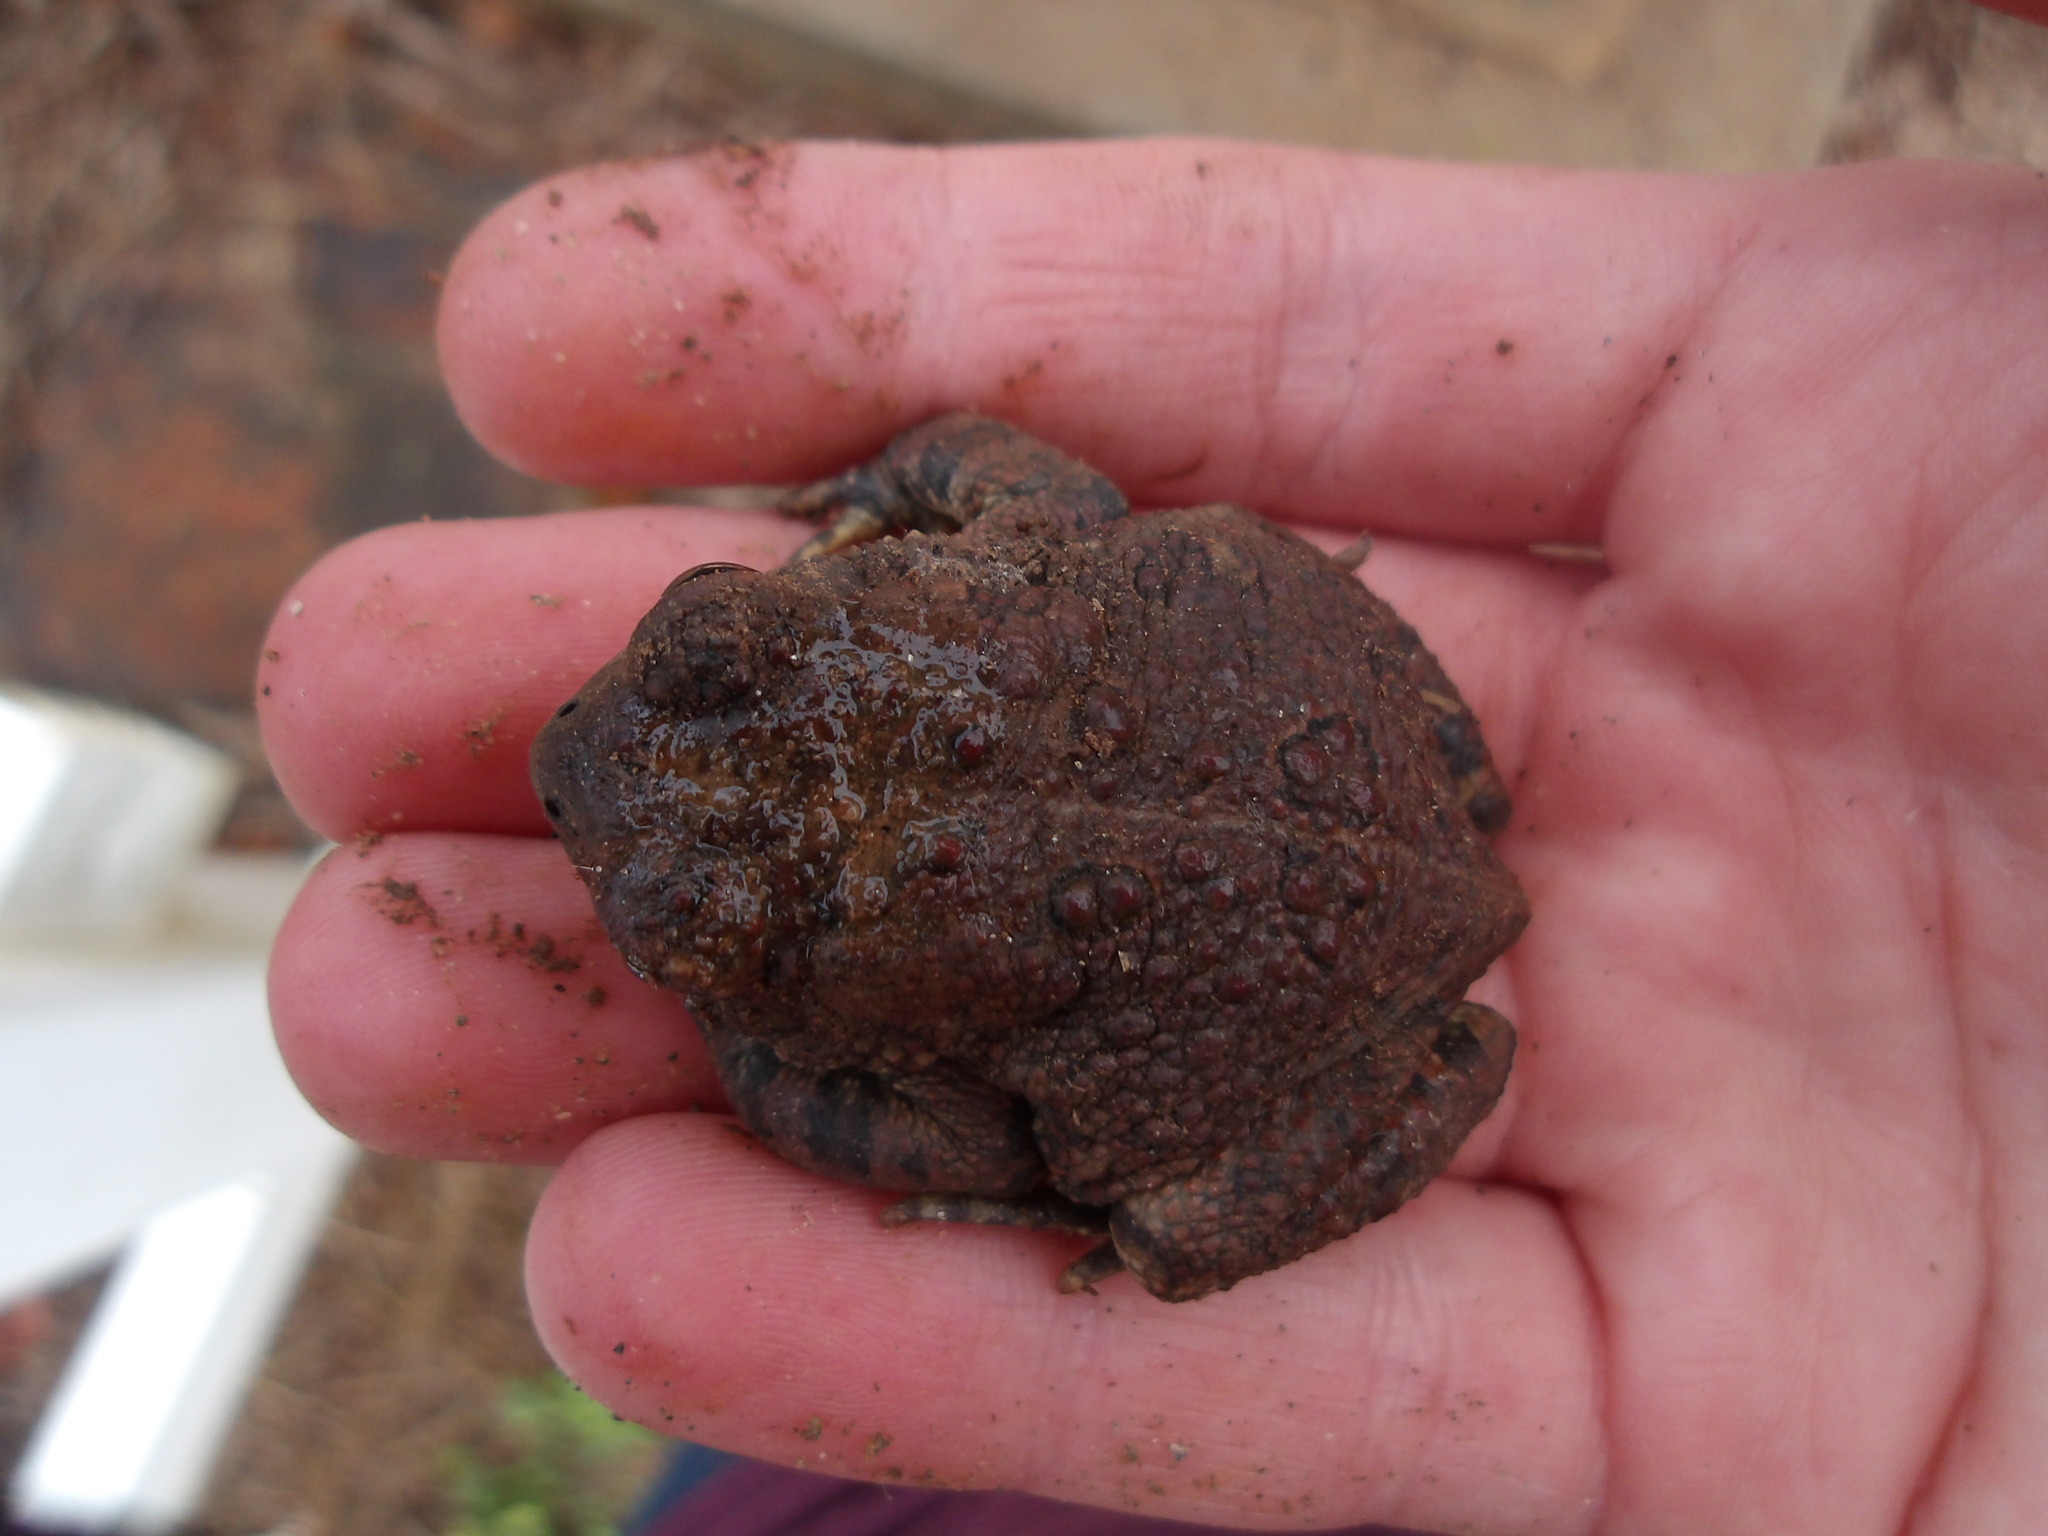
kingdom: Animalia
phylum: Chordata
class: Amphibia
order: Anura
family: Bufonidae
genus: Anaxyrus
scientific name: Anaxyrus fowleri
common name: Fowler's toad
